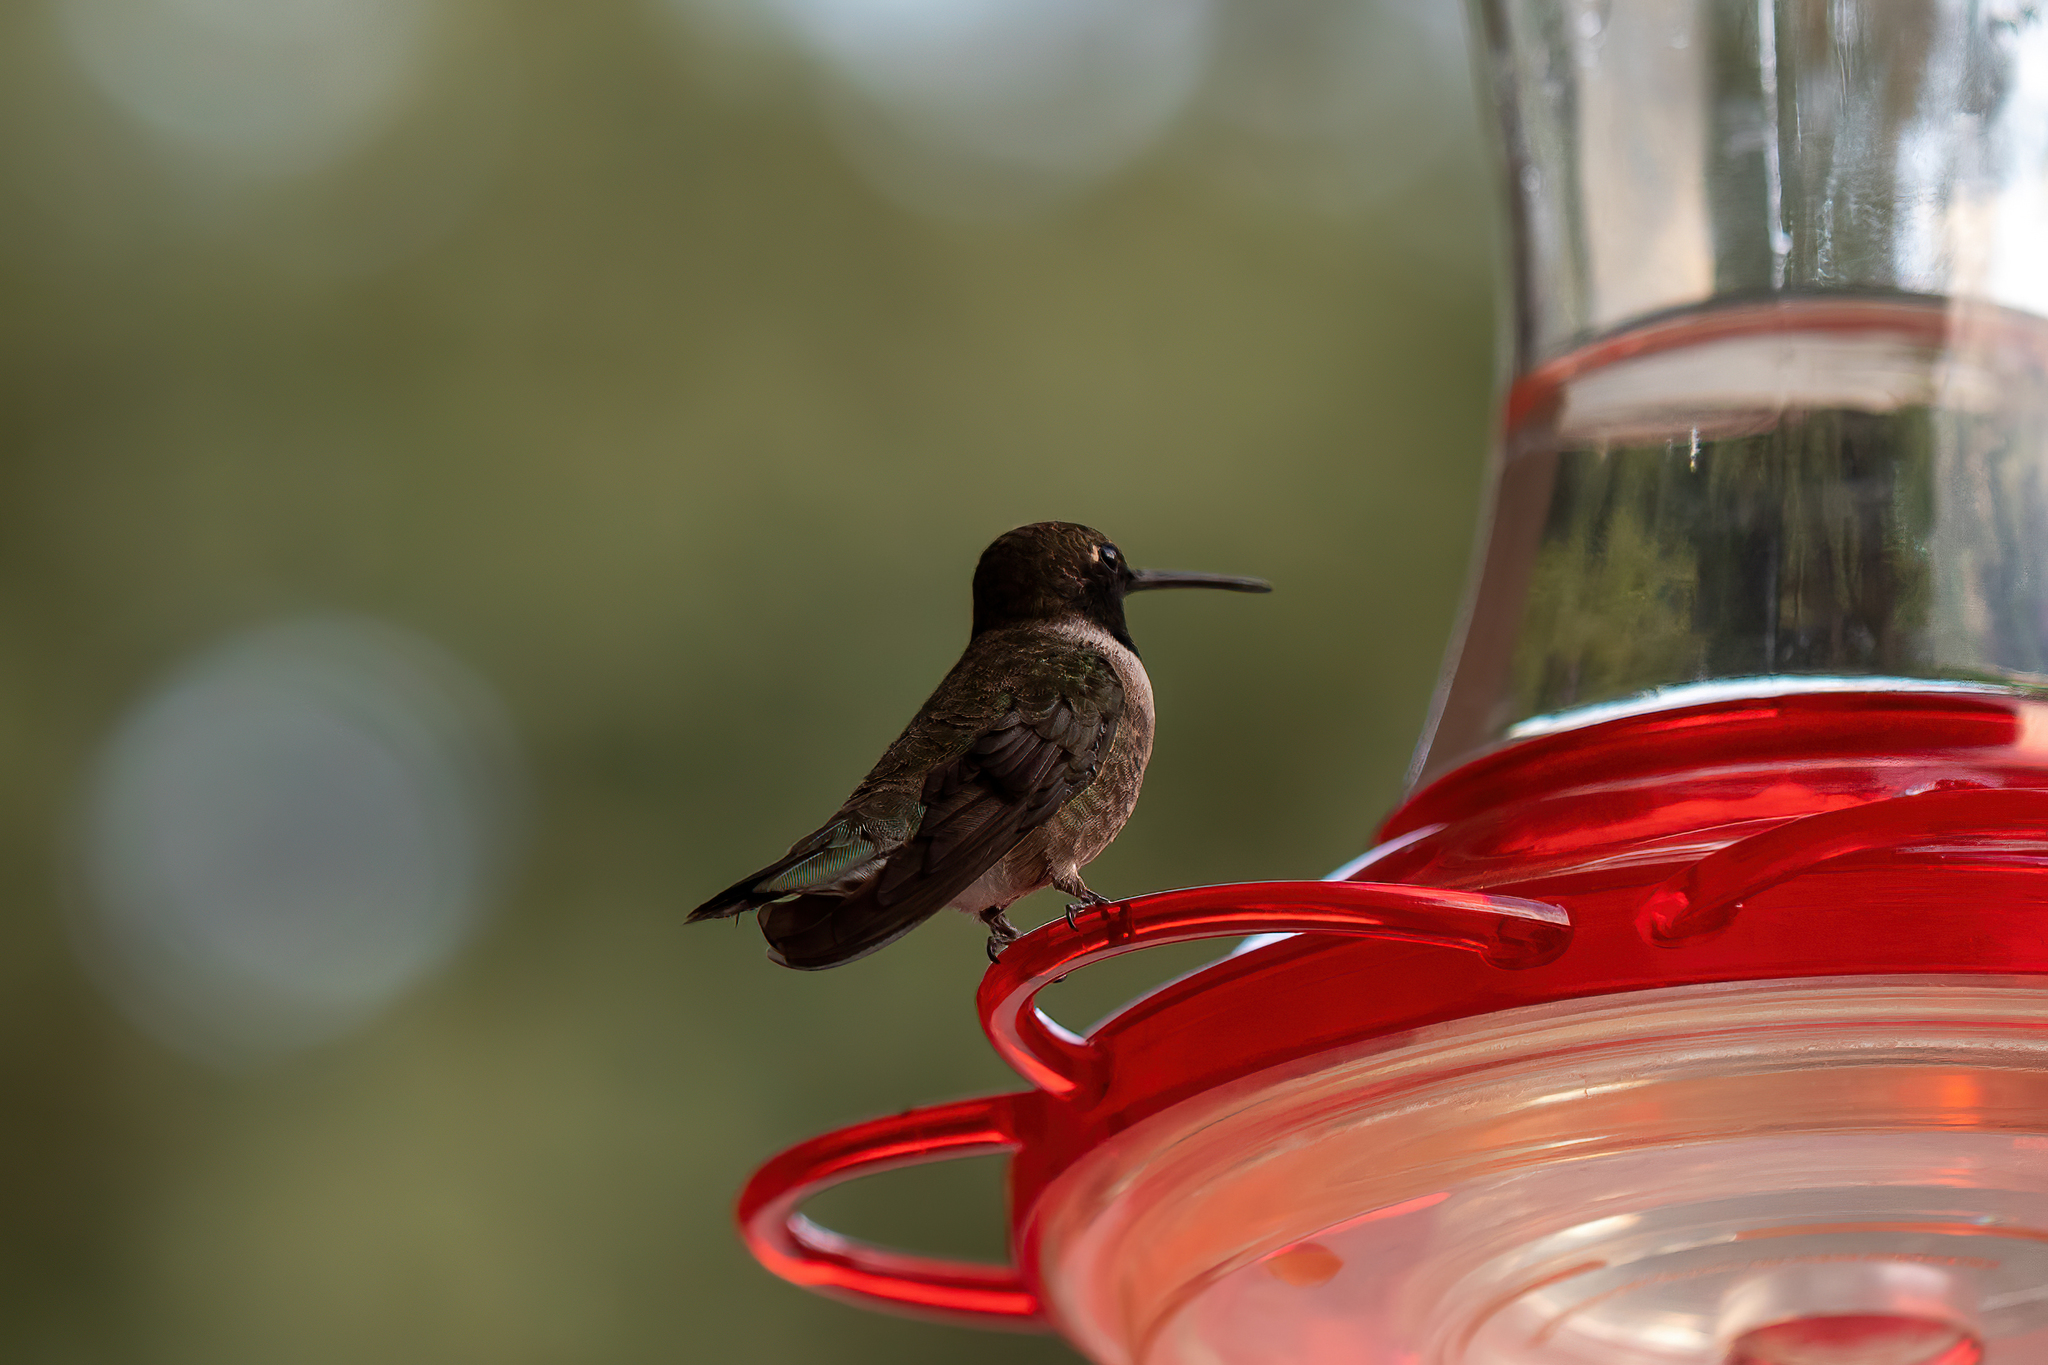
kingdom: Animalia
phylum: Chordata
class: Aves
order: Apodiformes
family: Trochilidae
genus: Archilochus
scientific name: Archilochus alexandri
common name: Black-chinned hummingbird
